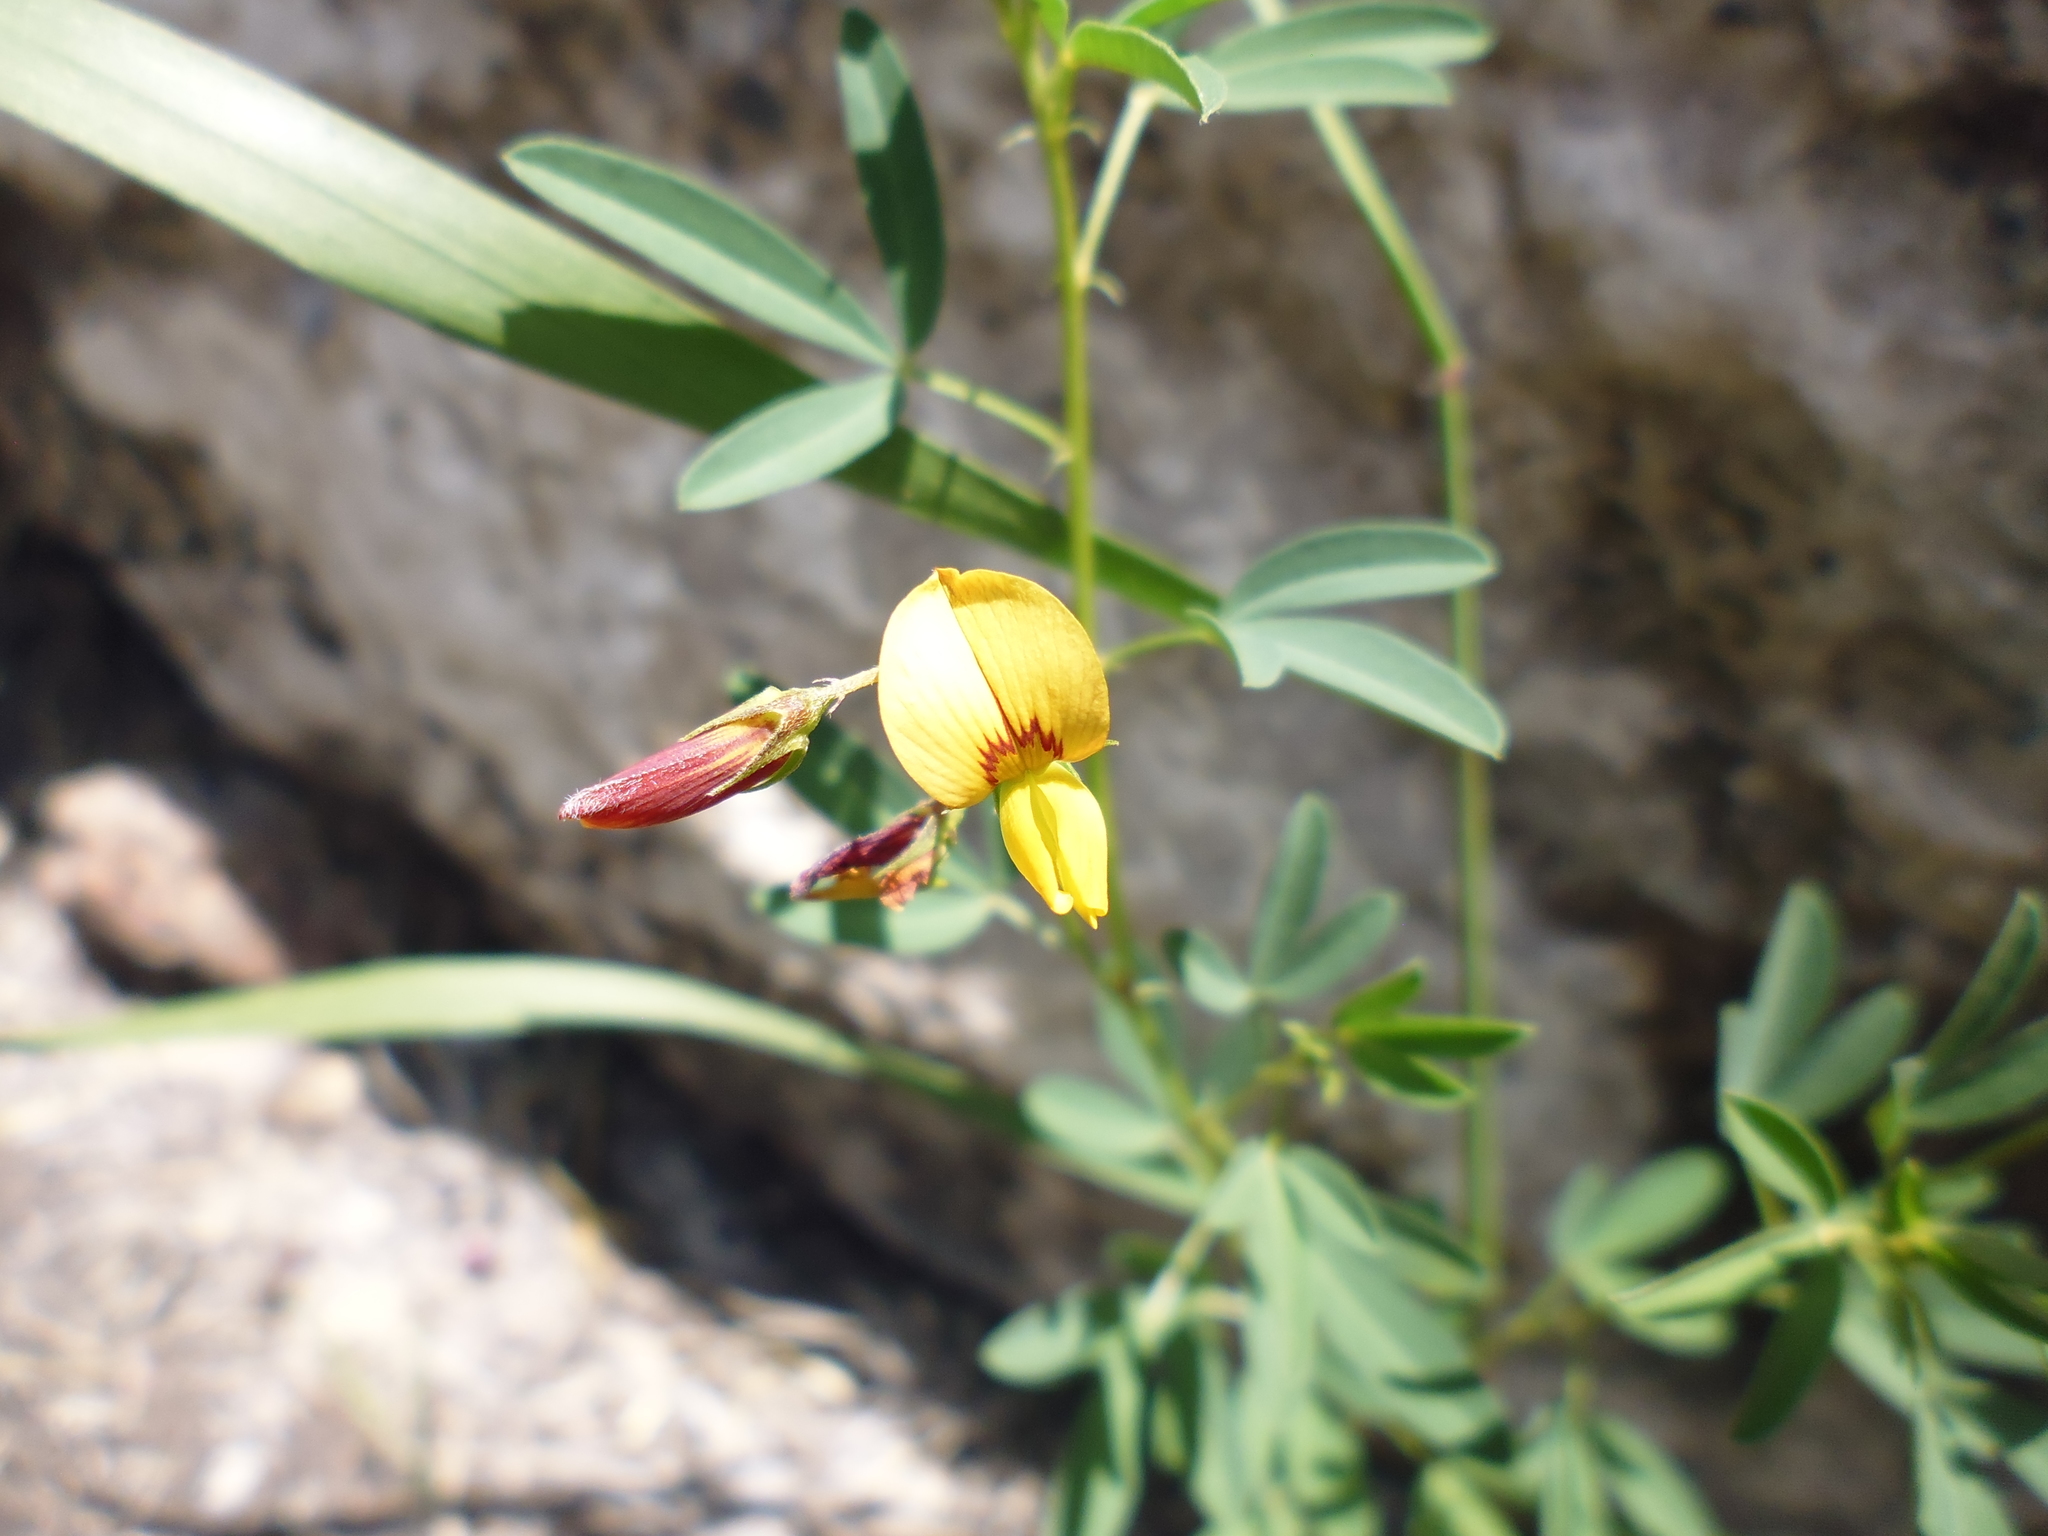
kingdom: Plantae
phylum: Tracheophyta
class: Magnoliopsida
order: Fabales
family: Fabaceae
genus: Crotalaria
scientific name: Crotalaria pumila
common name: Low rattlebox
